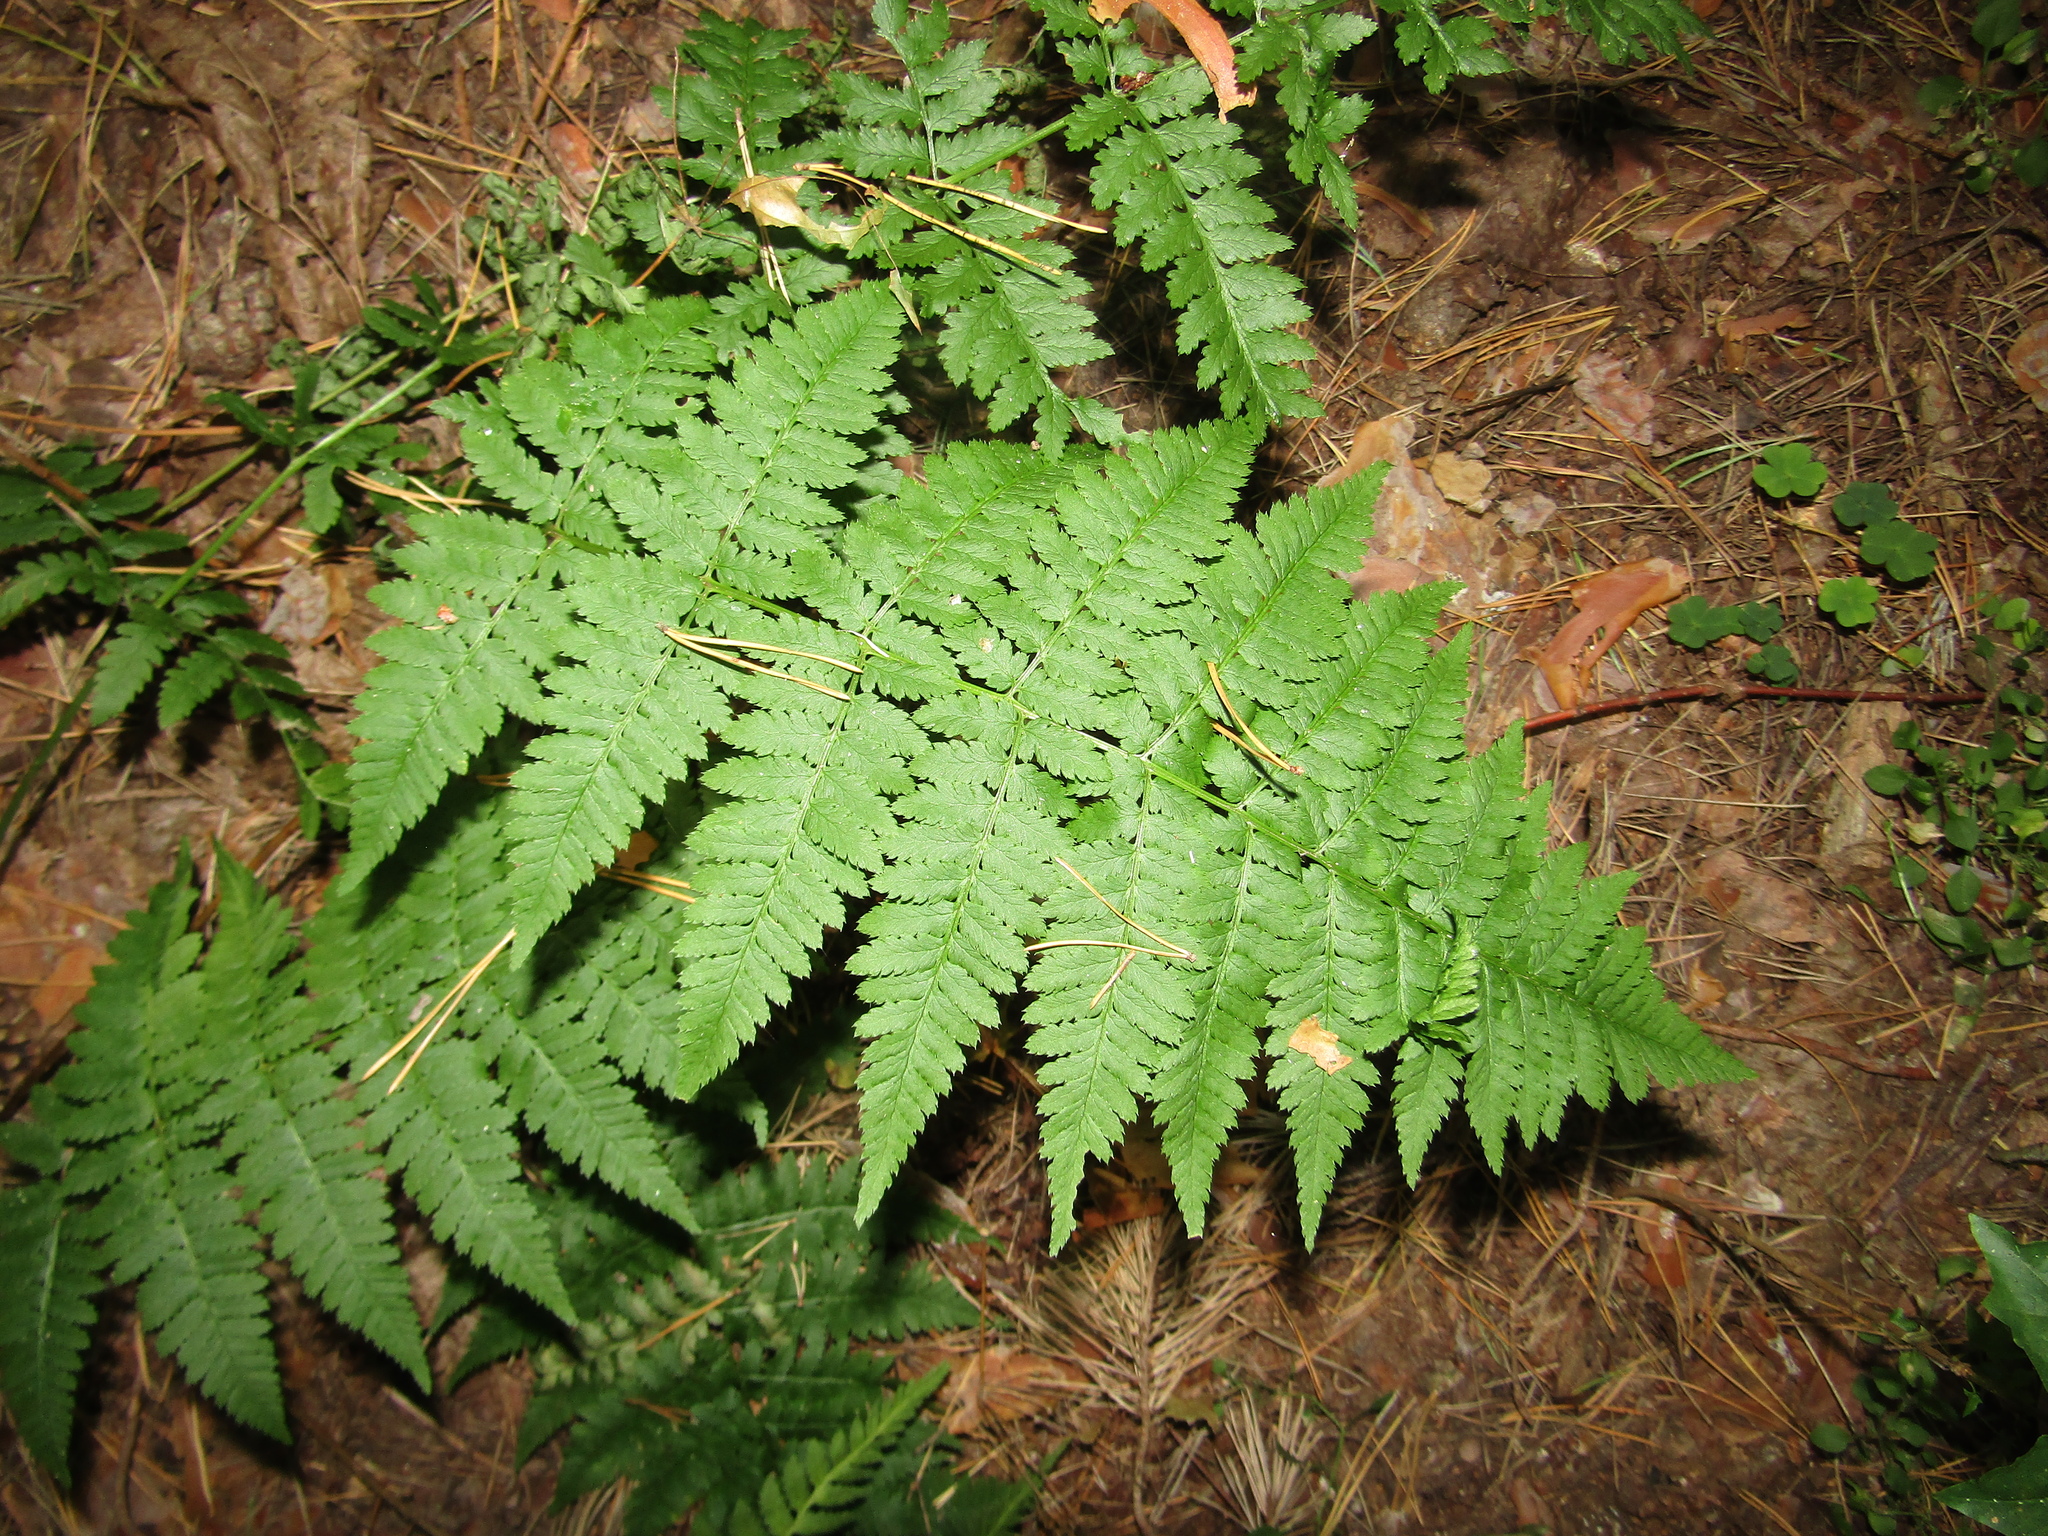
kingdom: Plantae
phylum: Tracheophyta
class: Polypodiopsida
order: Polypodiales
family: Dryopteridaceae
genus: Dryopteris
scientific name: Dryopteris carthusiana
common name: Narrow buckler-fern
